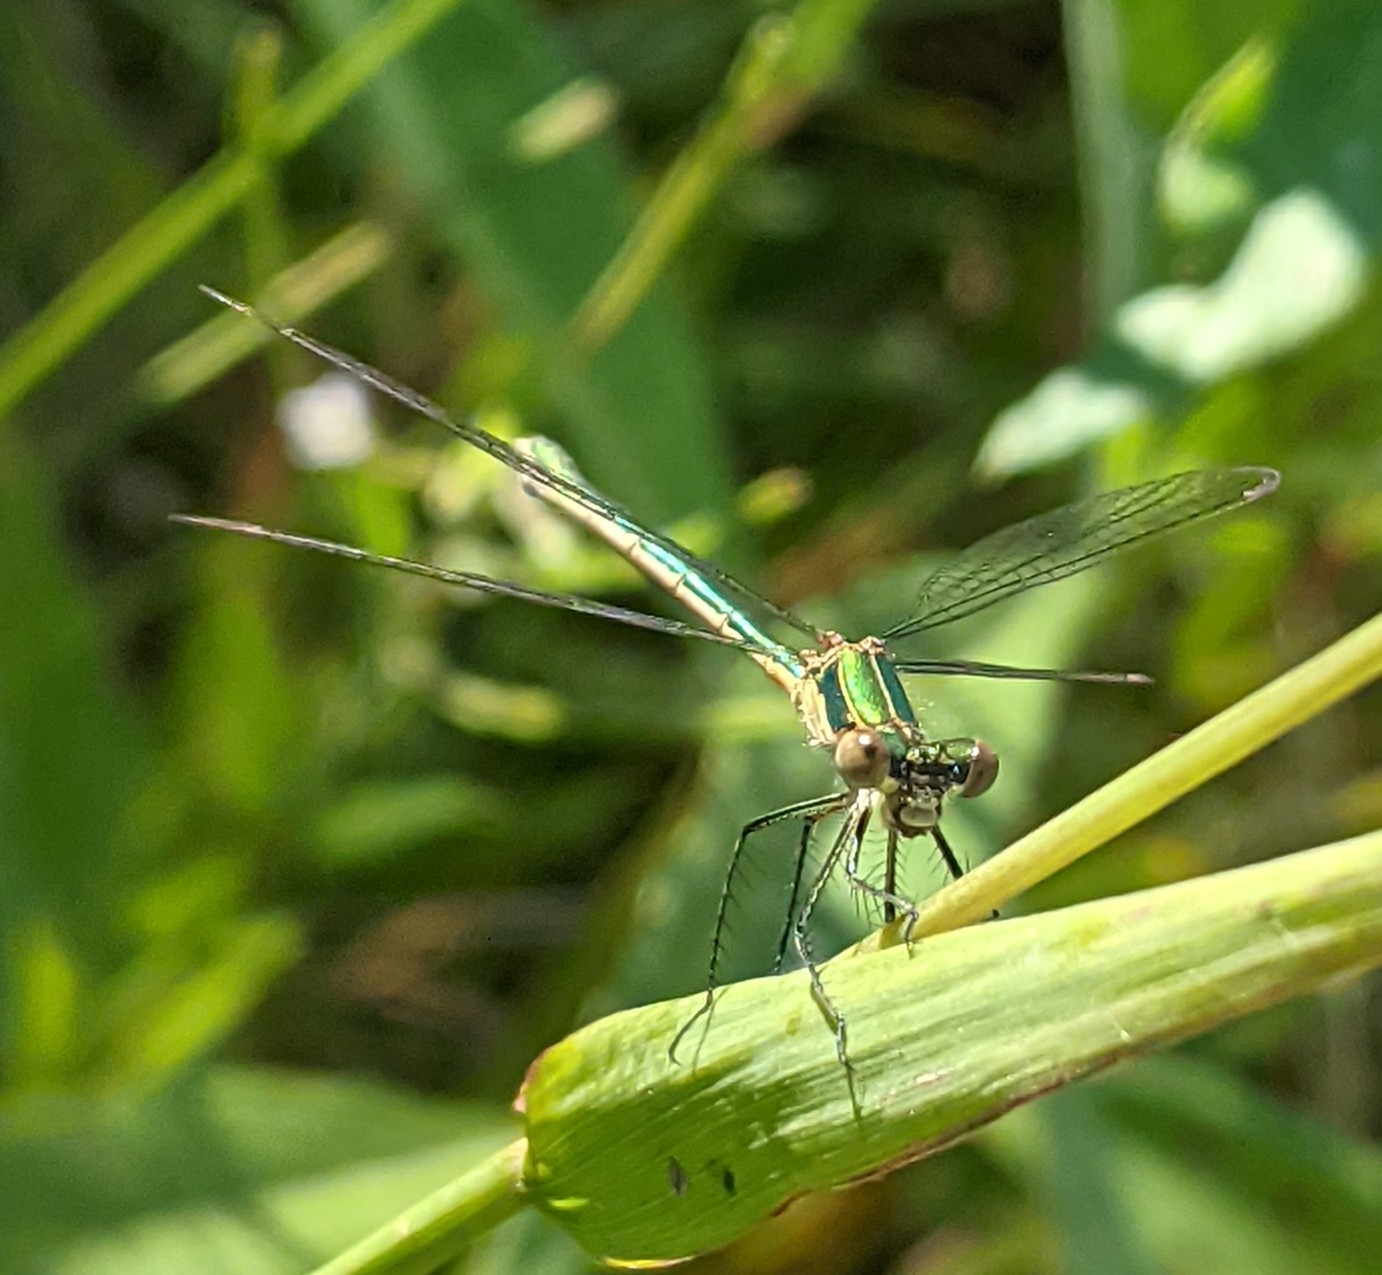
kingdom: Animalia
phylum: Arthropoda
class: Insecta
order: Odonata
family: Lestidae
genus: Lestes
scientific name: Lestes virens
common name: Small emerald spreadwing
